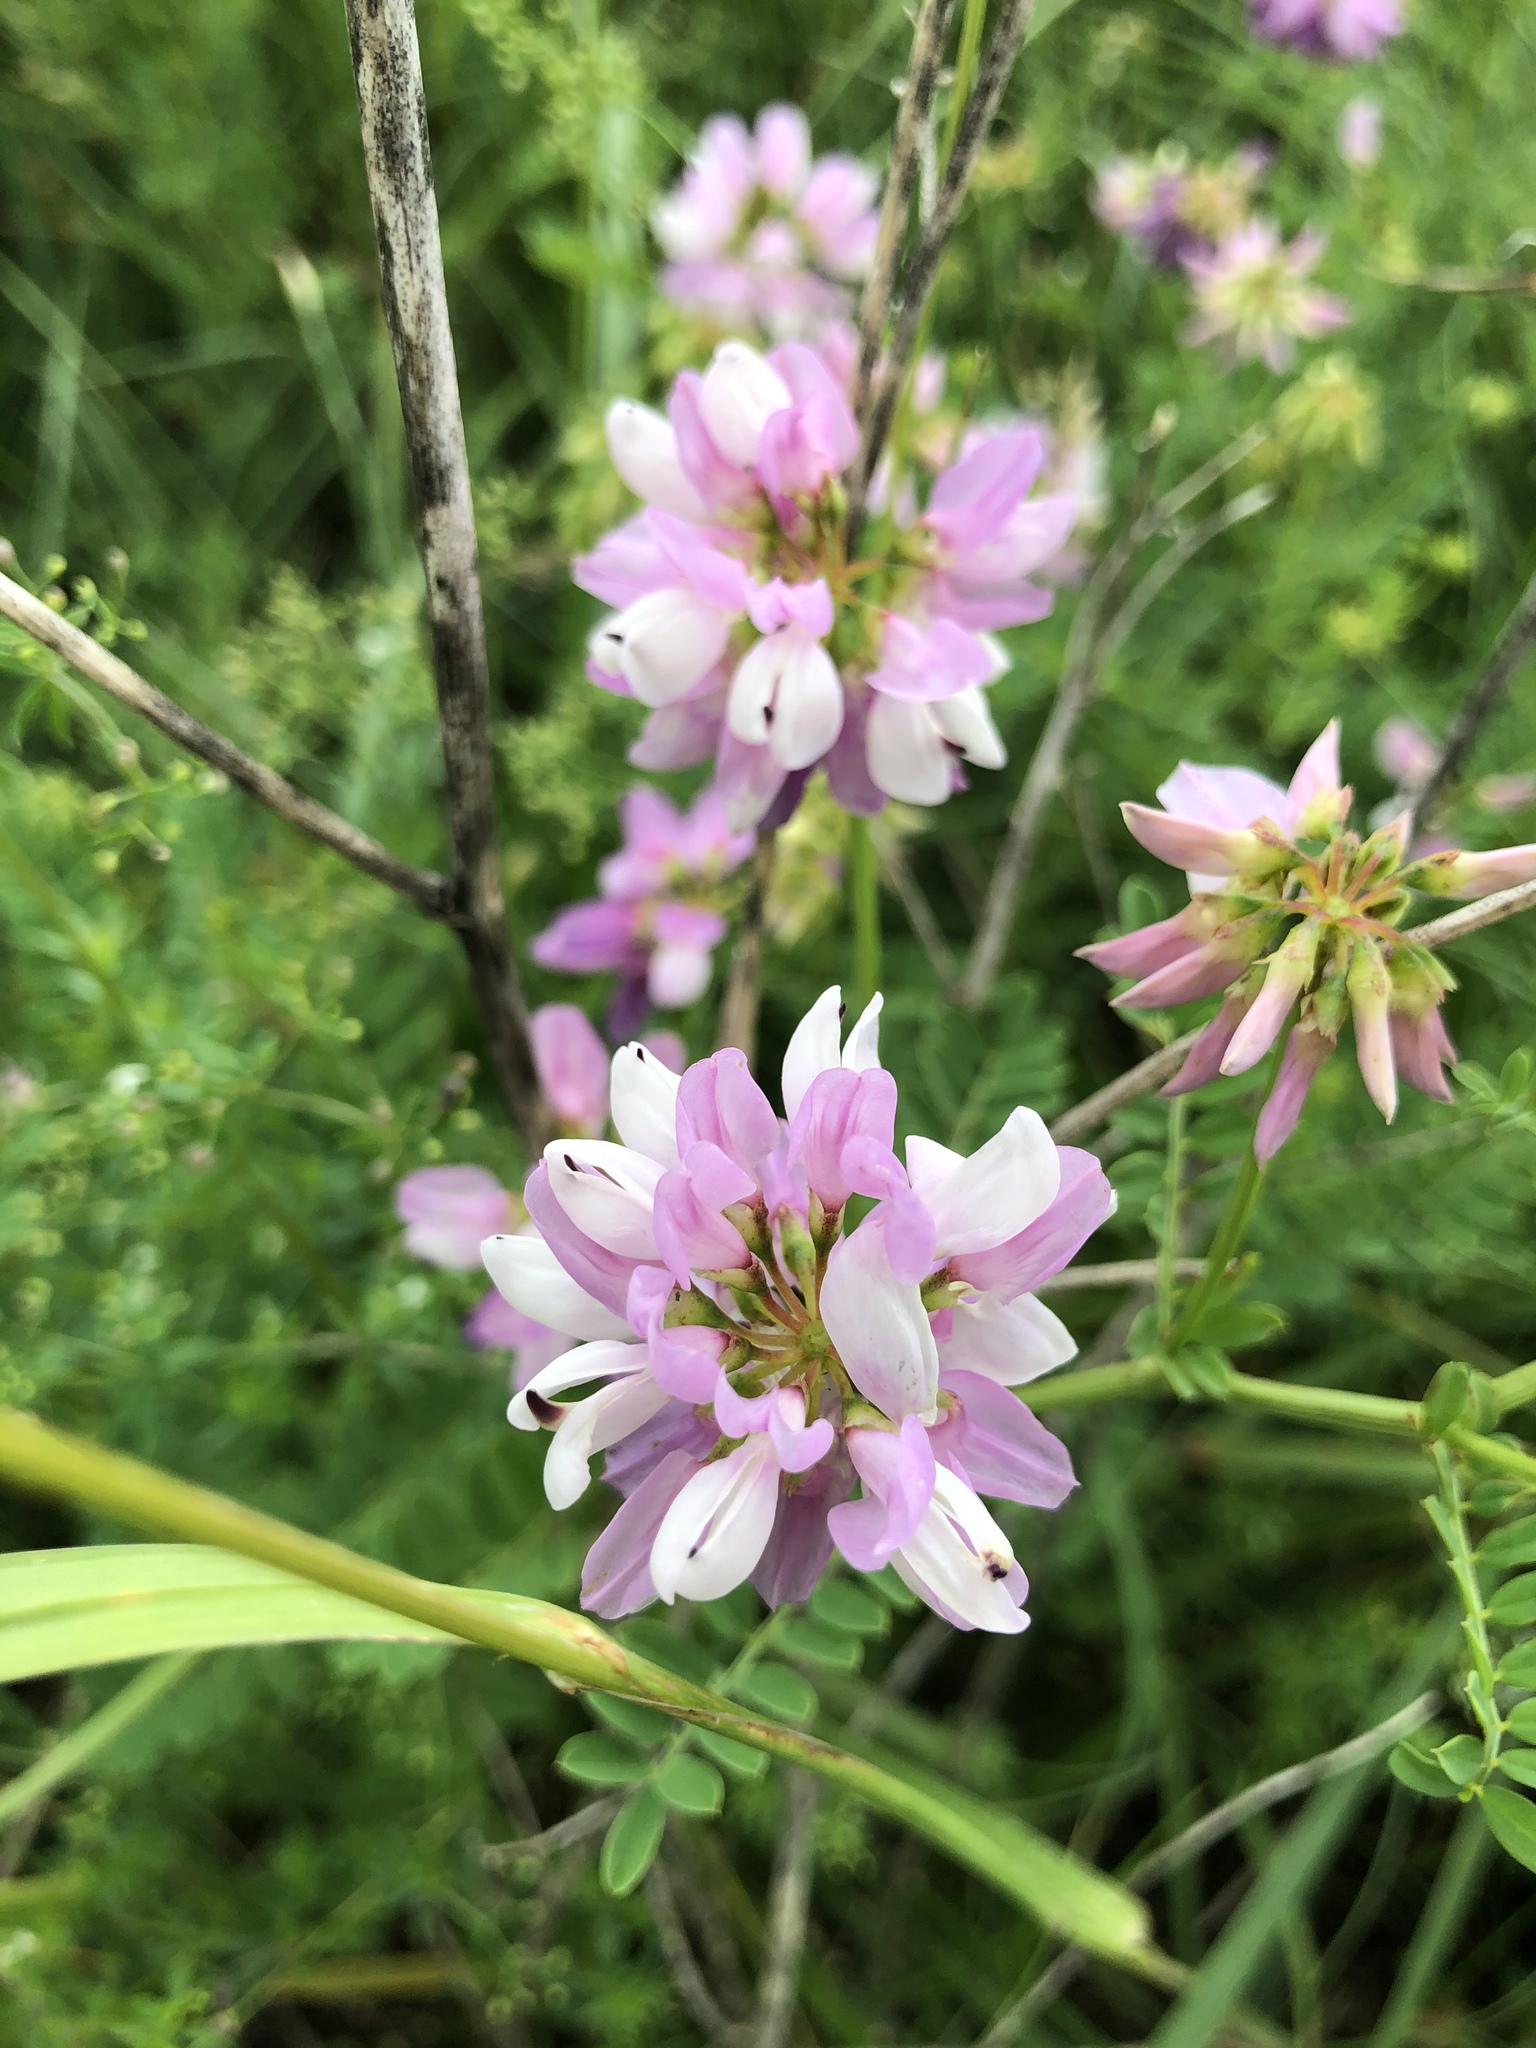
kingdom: Plantae
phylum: Tracheophyta
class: Magnoliopsida
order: Fabales
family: Fabaceae
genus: Coronilla
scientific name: Coronilla varia
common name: Crownvetch
